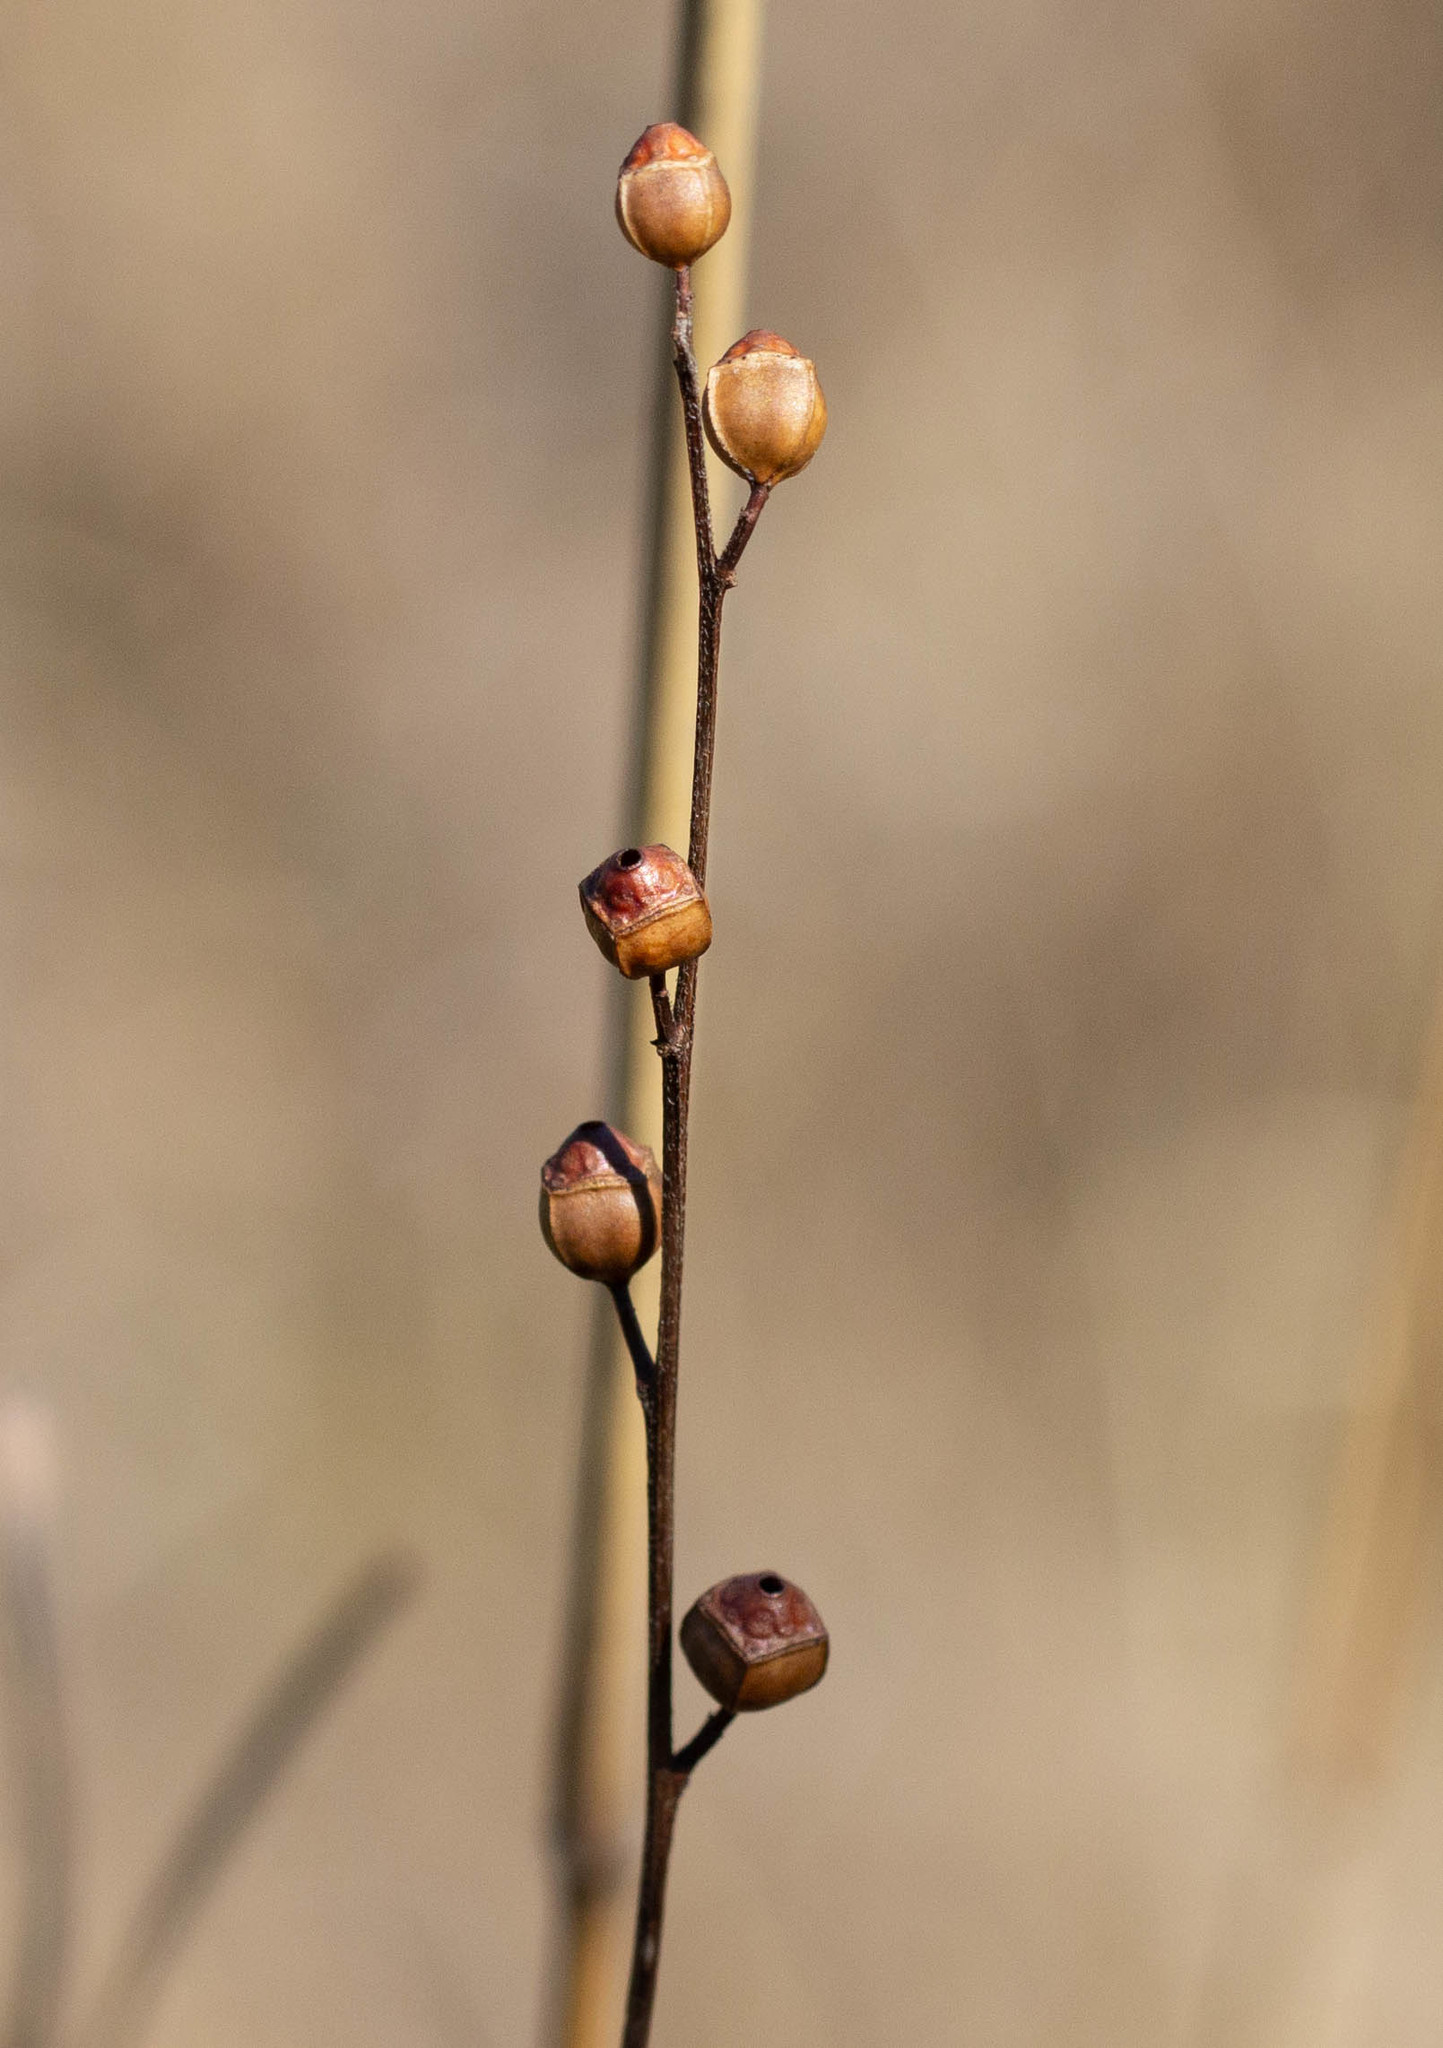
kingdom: Plantae
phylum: Tracheophyta
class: Magnoliopsida
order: Myrtales
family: Onagraceae
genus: Ludwigia
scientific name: Ludwigia alternifolia
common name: Rattlebox
